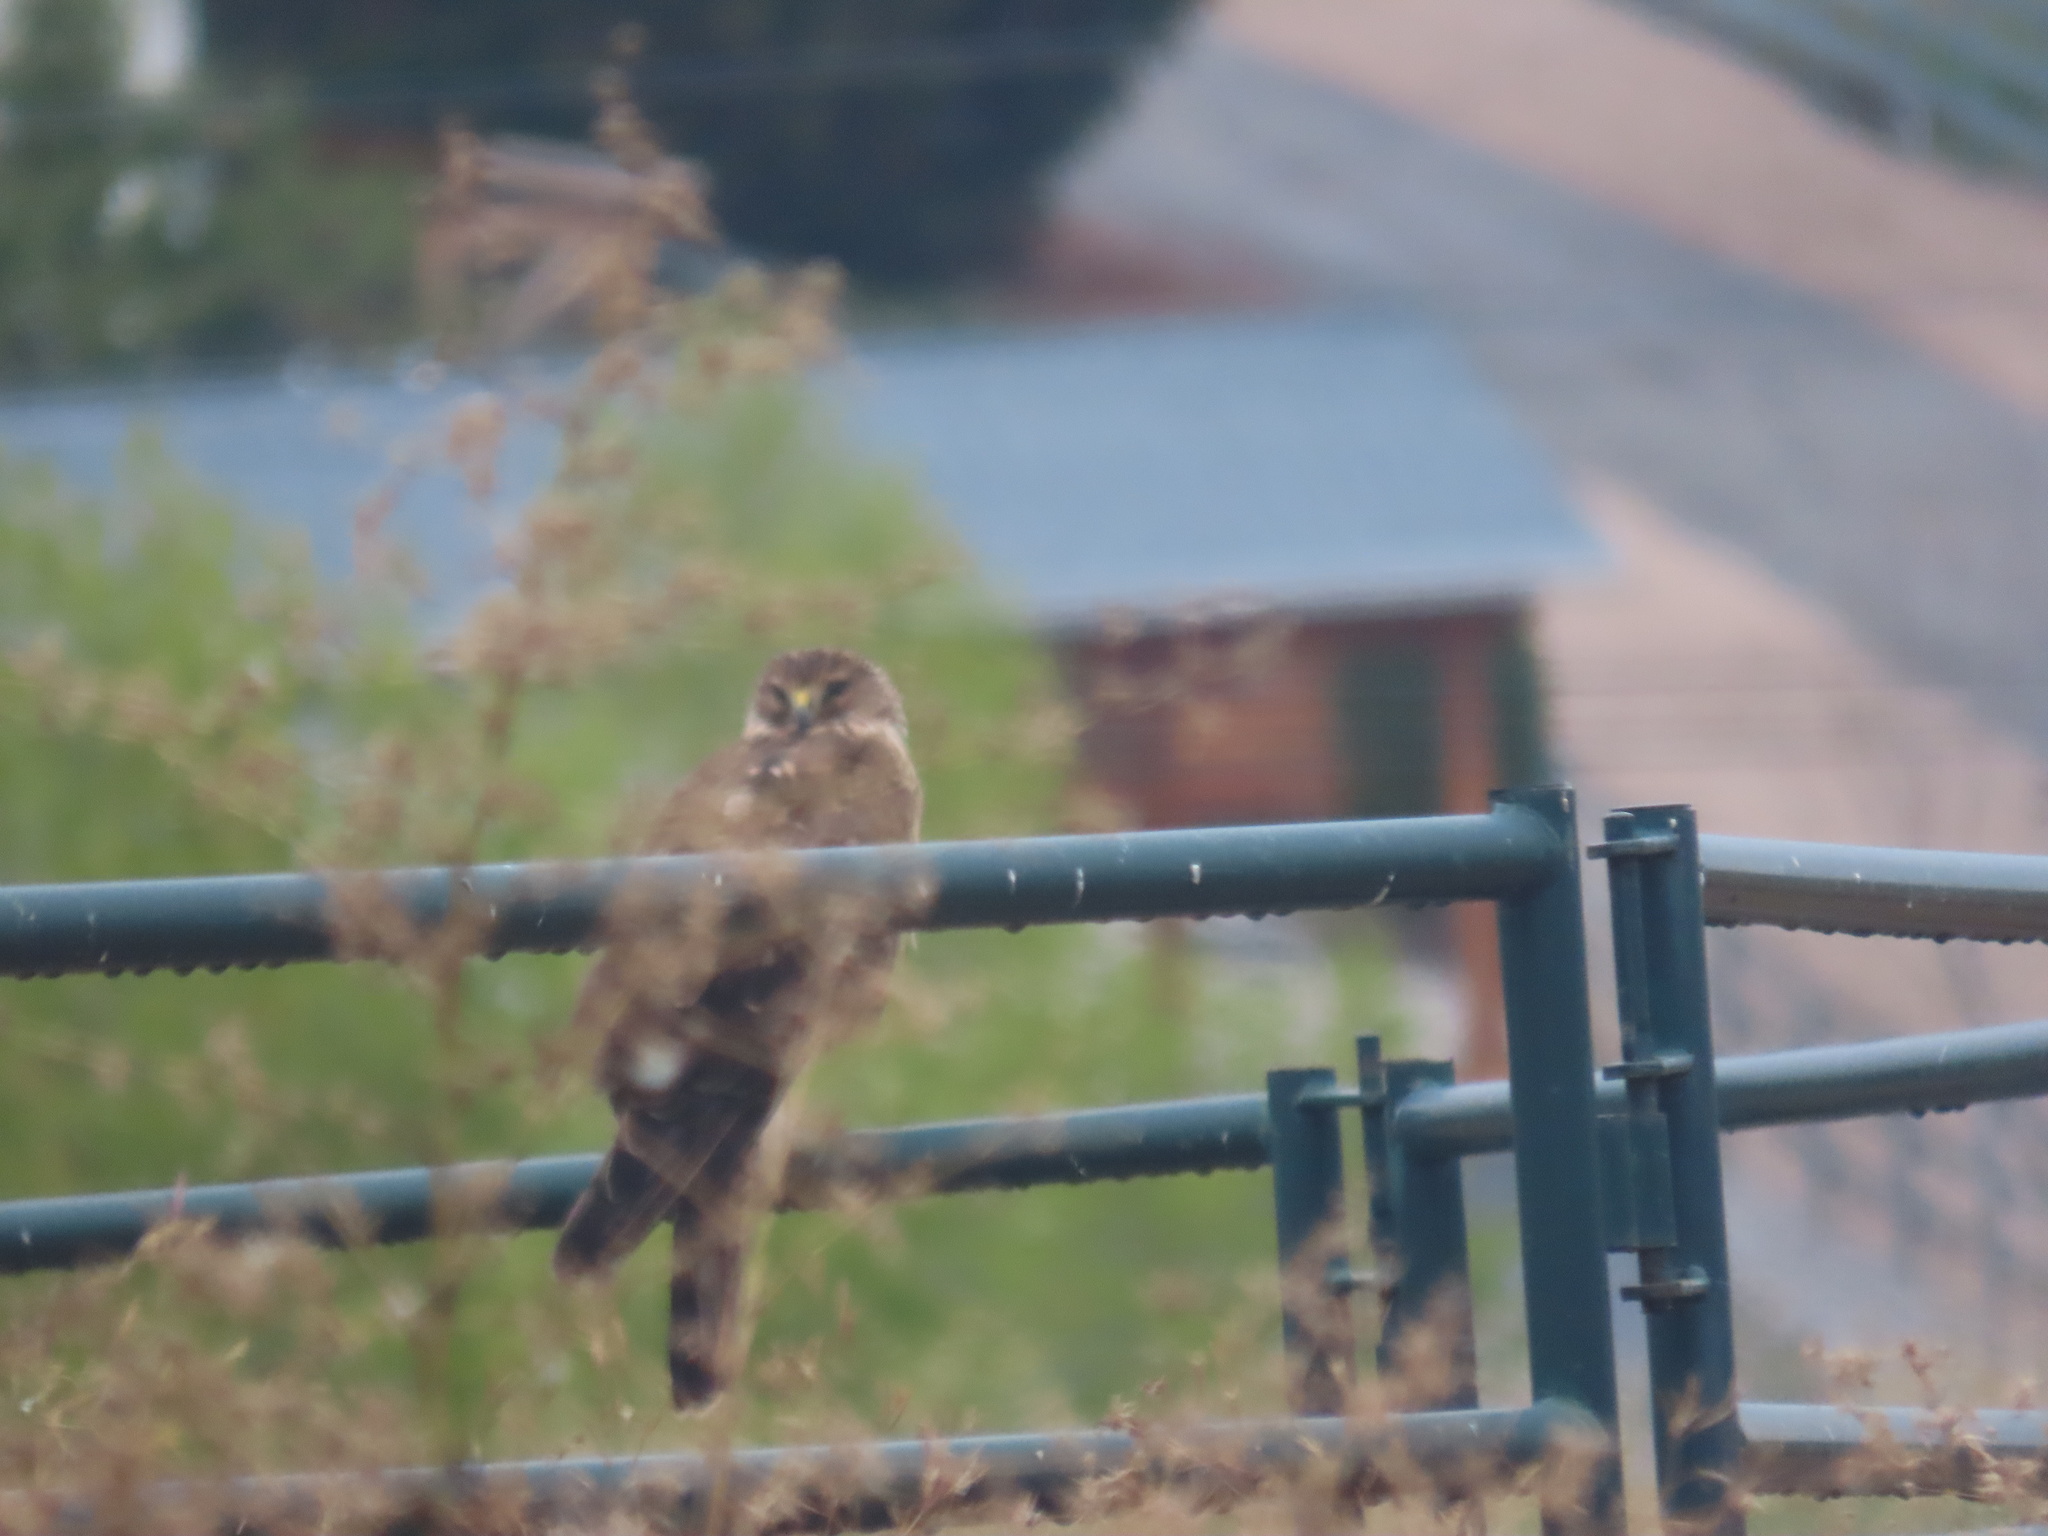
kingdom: Animalia
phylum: Chordata
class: Aves
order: Accipitriformes
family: Accipitridae
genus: Circus
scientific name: Circus cyaneus
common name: Hen harrier
